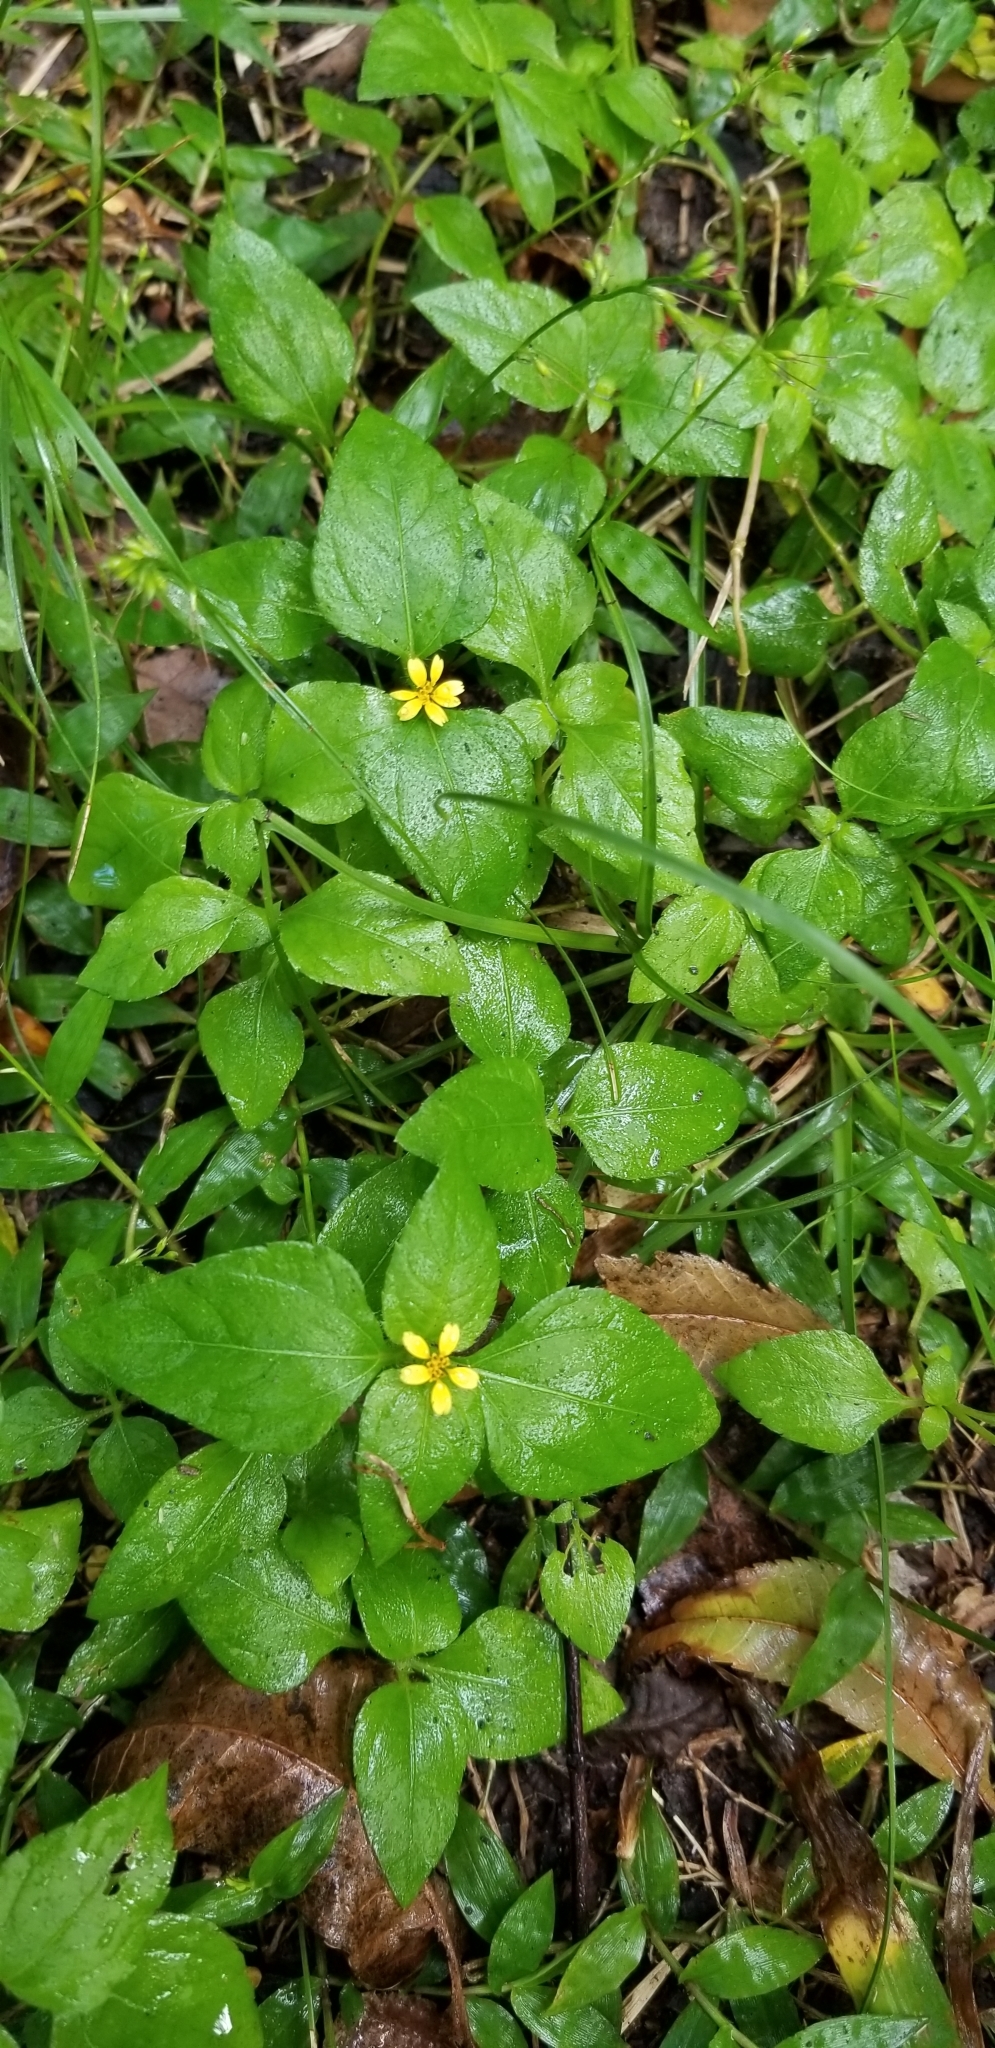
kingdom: Plantae
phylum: Tracheophyta
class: Magnoliopsida
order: Asterales
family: Asteraceae
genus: Calyptocarpus
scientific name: Calyptocarpus vialis
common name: Straggler daisy
